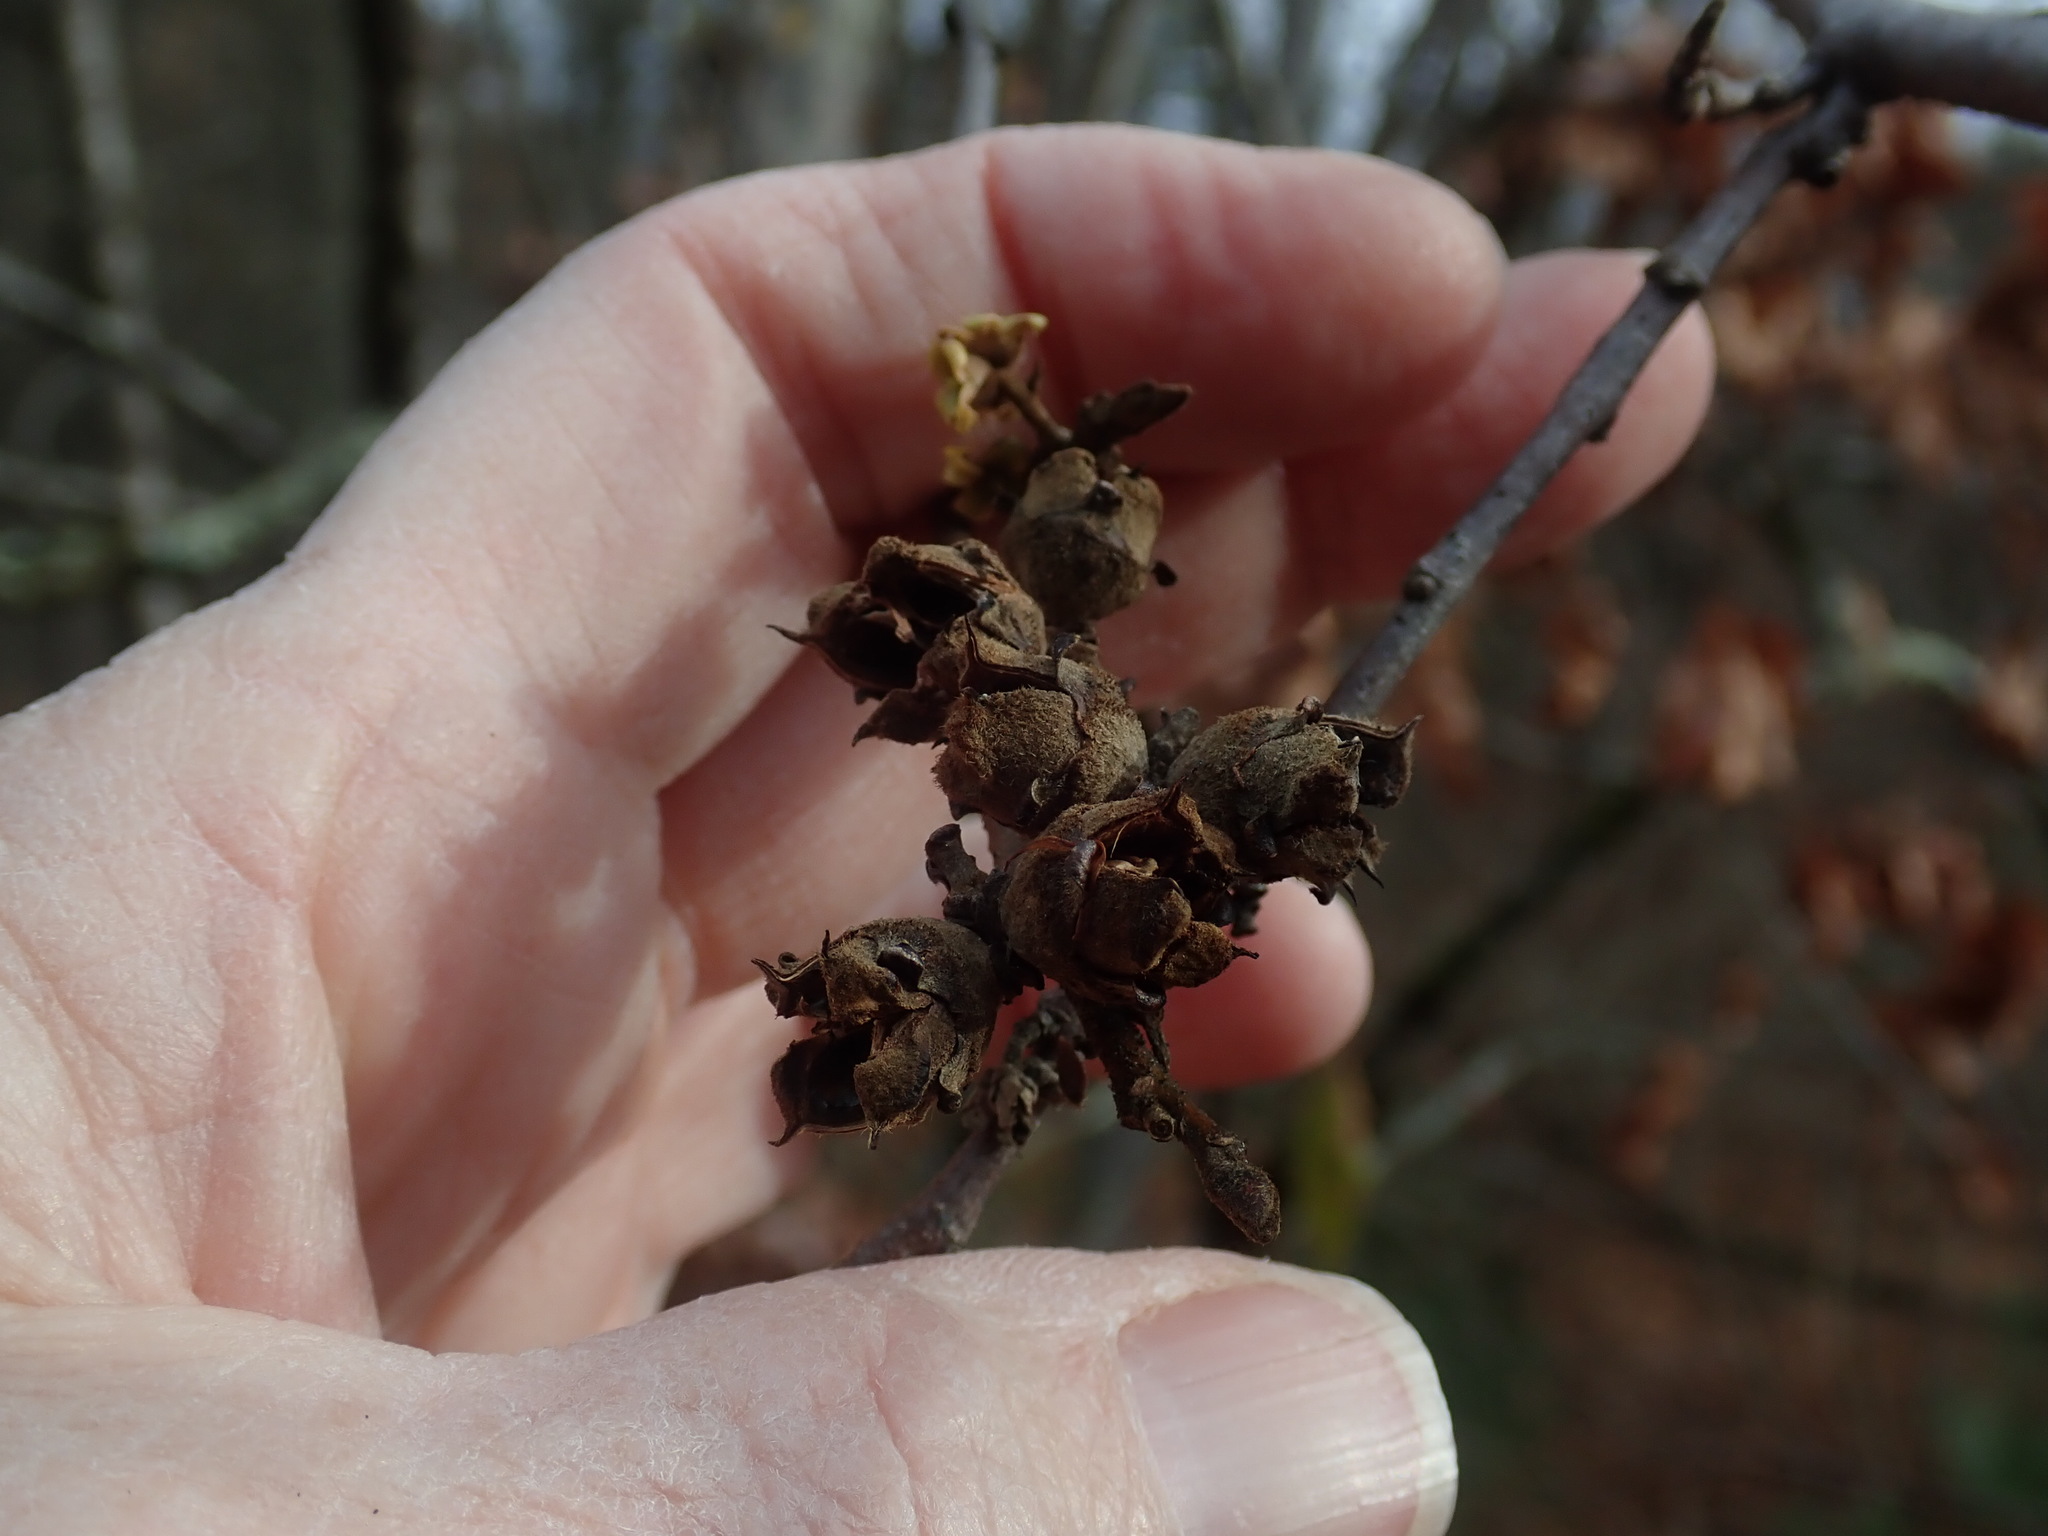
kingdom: Plantae
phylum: Tracheophyta
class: Magnoliopsida
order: Saxifragales
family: Hamamelidaceae
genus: Hamamelis
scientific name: Hamamelis virginiana
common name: Witch-hazel
